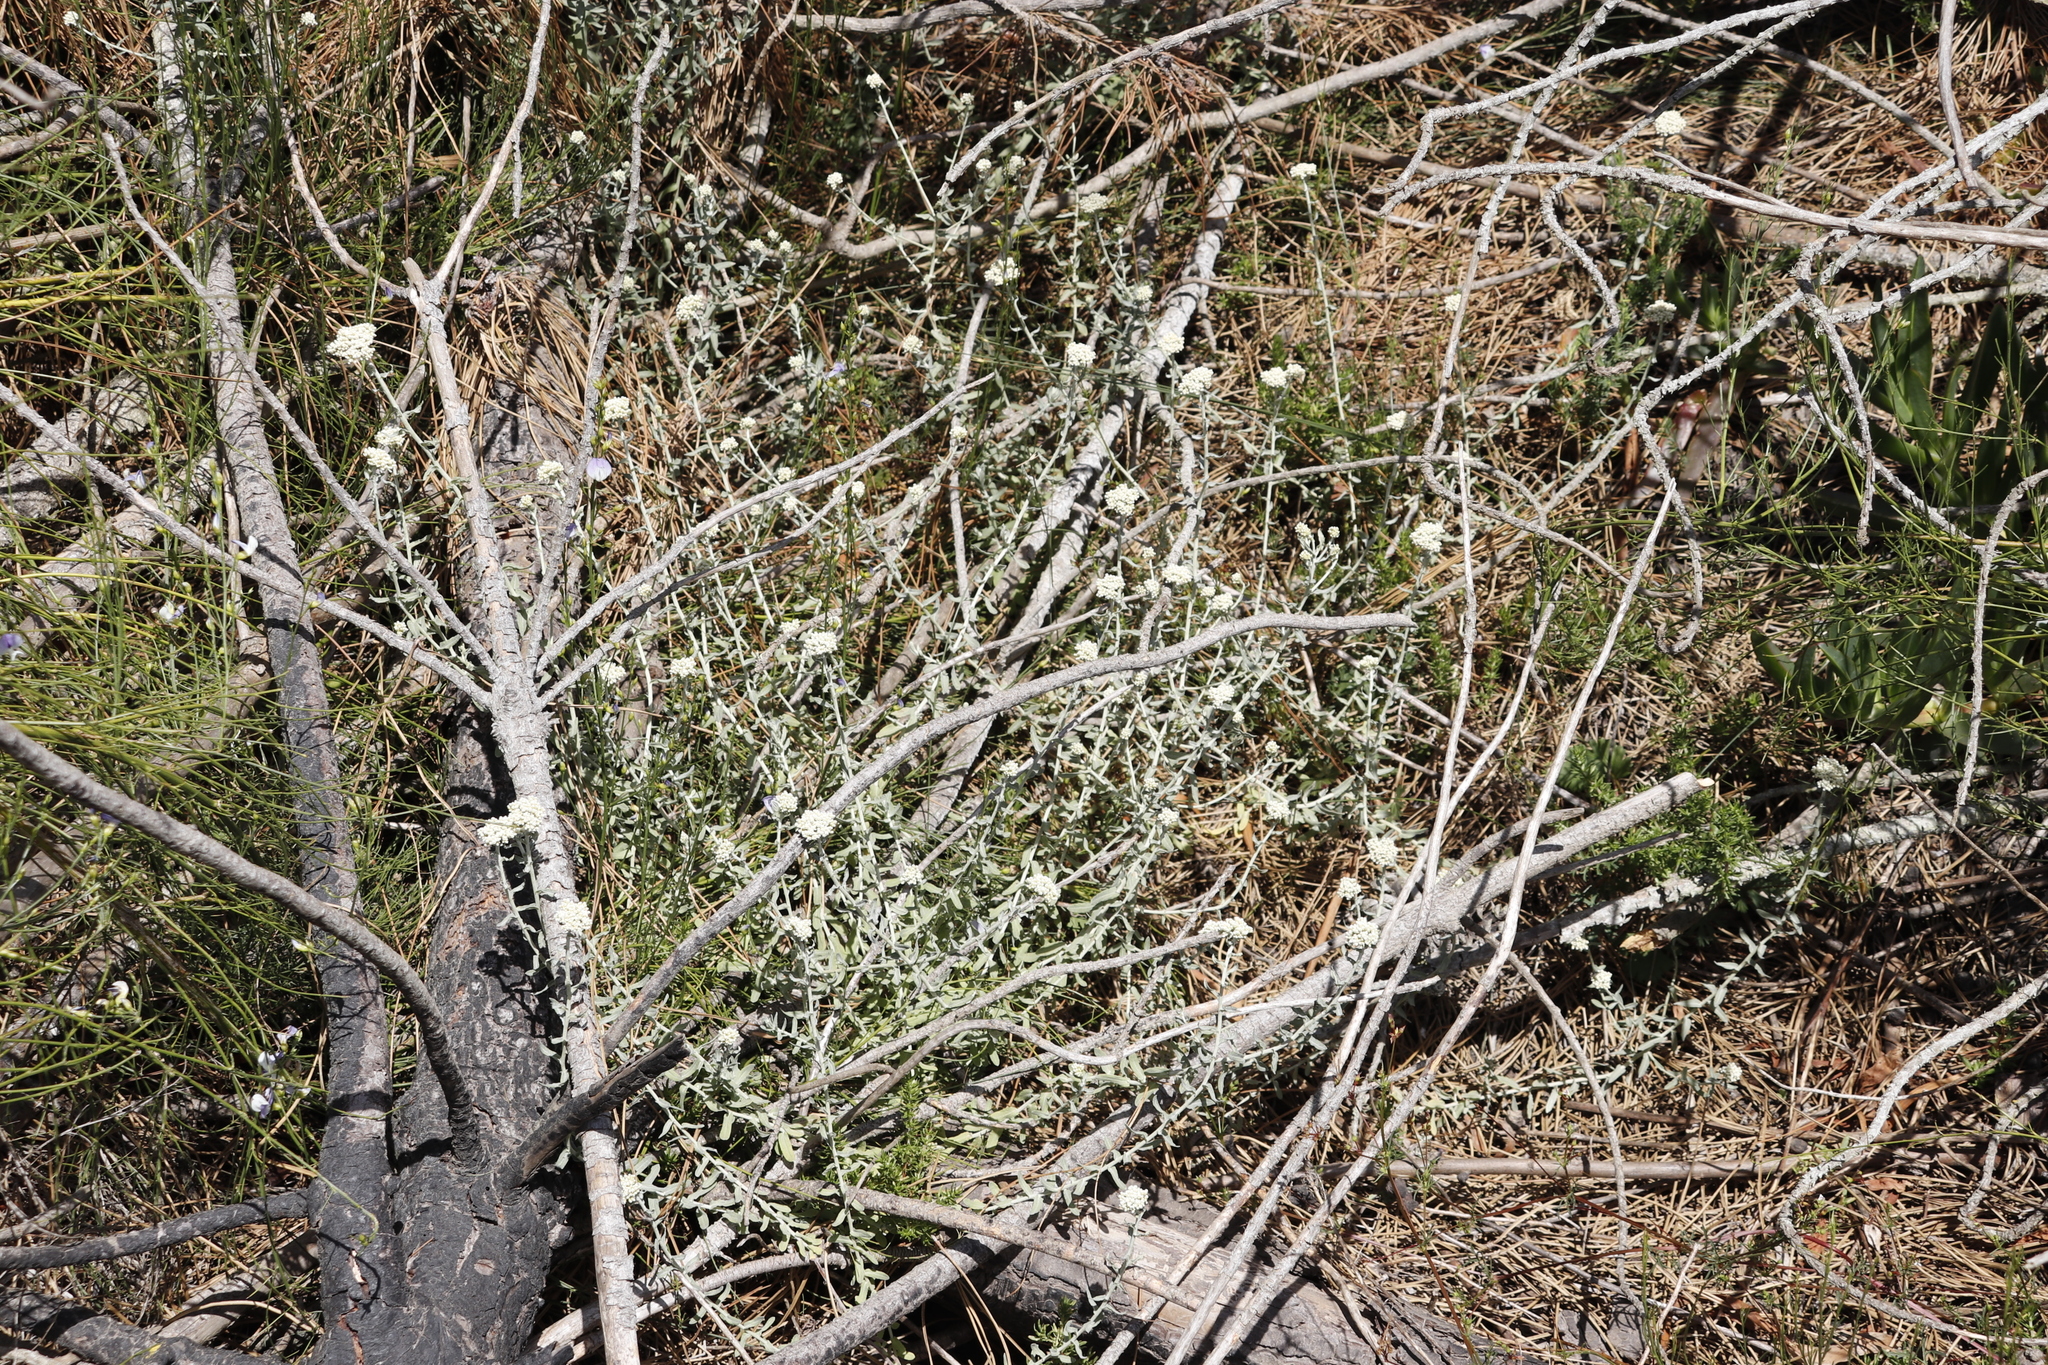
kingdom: Plantae
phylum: Tracheophyta
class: Magnoliopsida
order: Asterales
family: Asteraceae
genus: Helichrysum
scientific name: Helichrysum rosum
